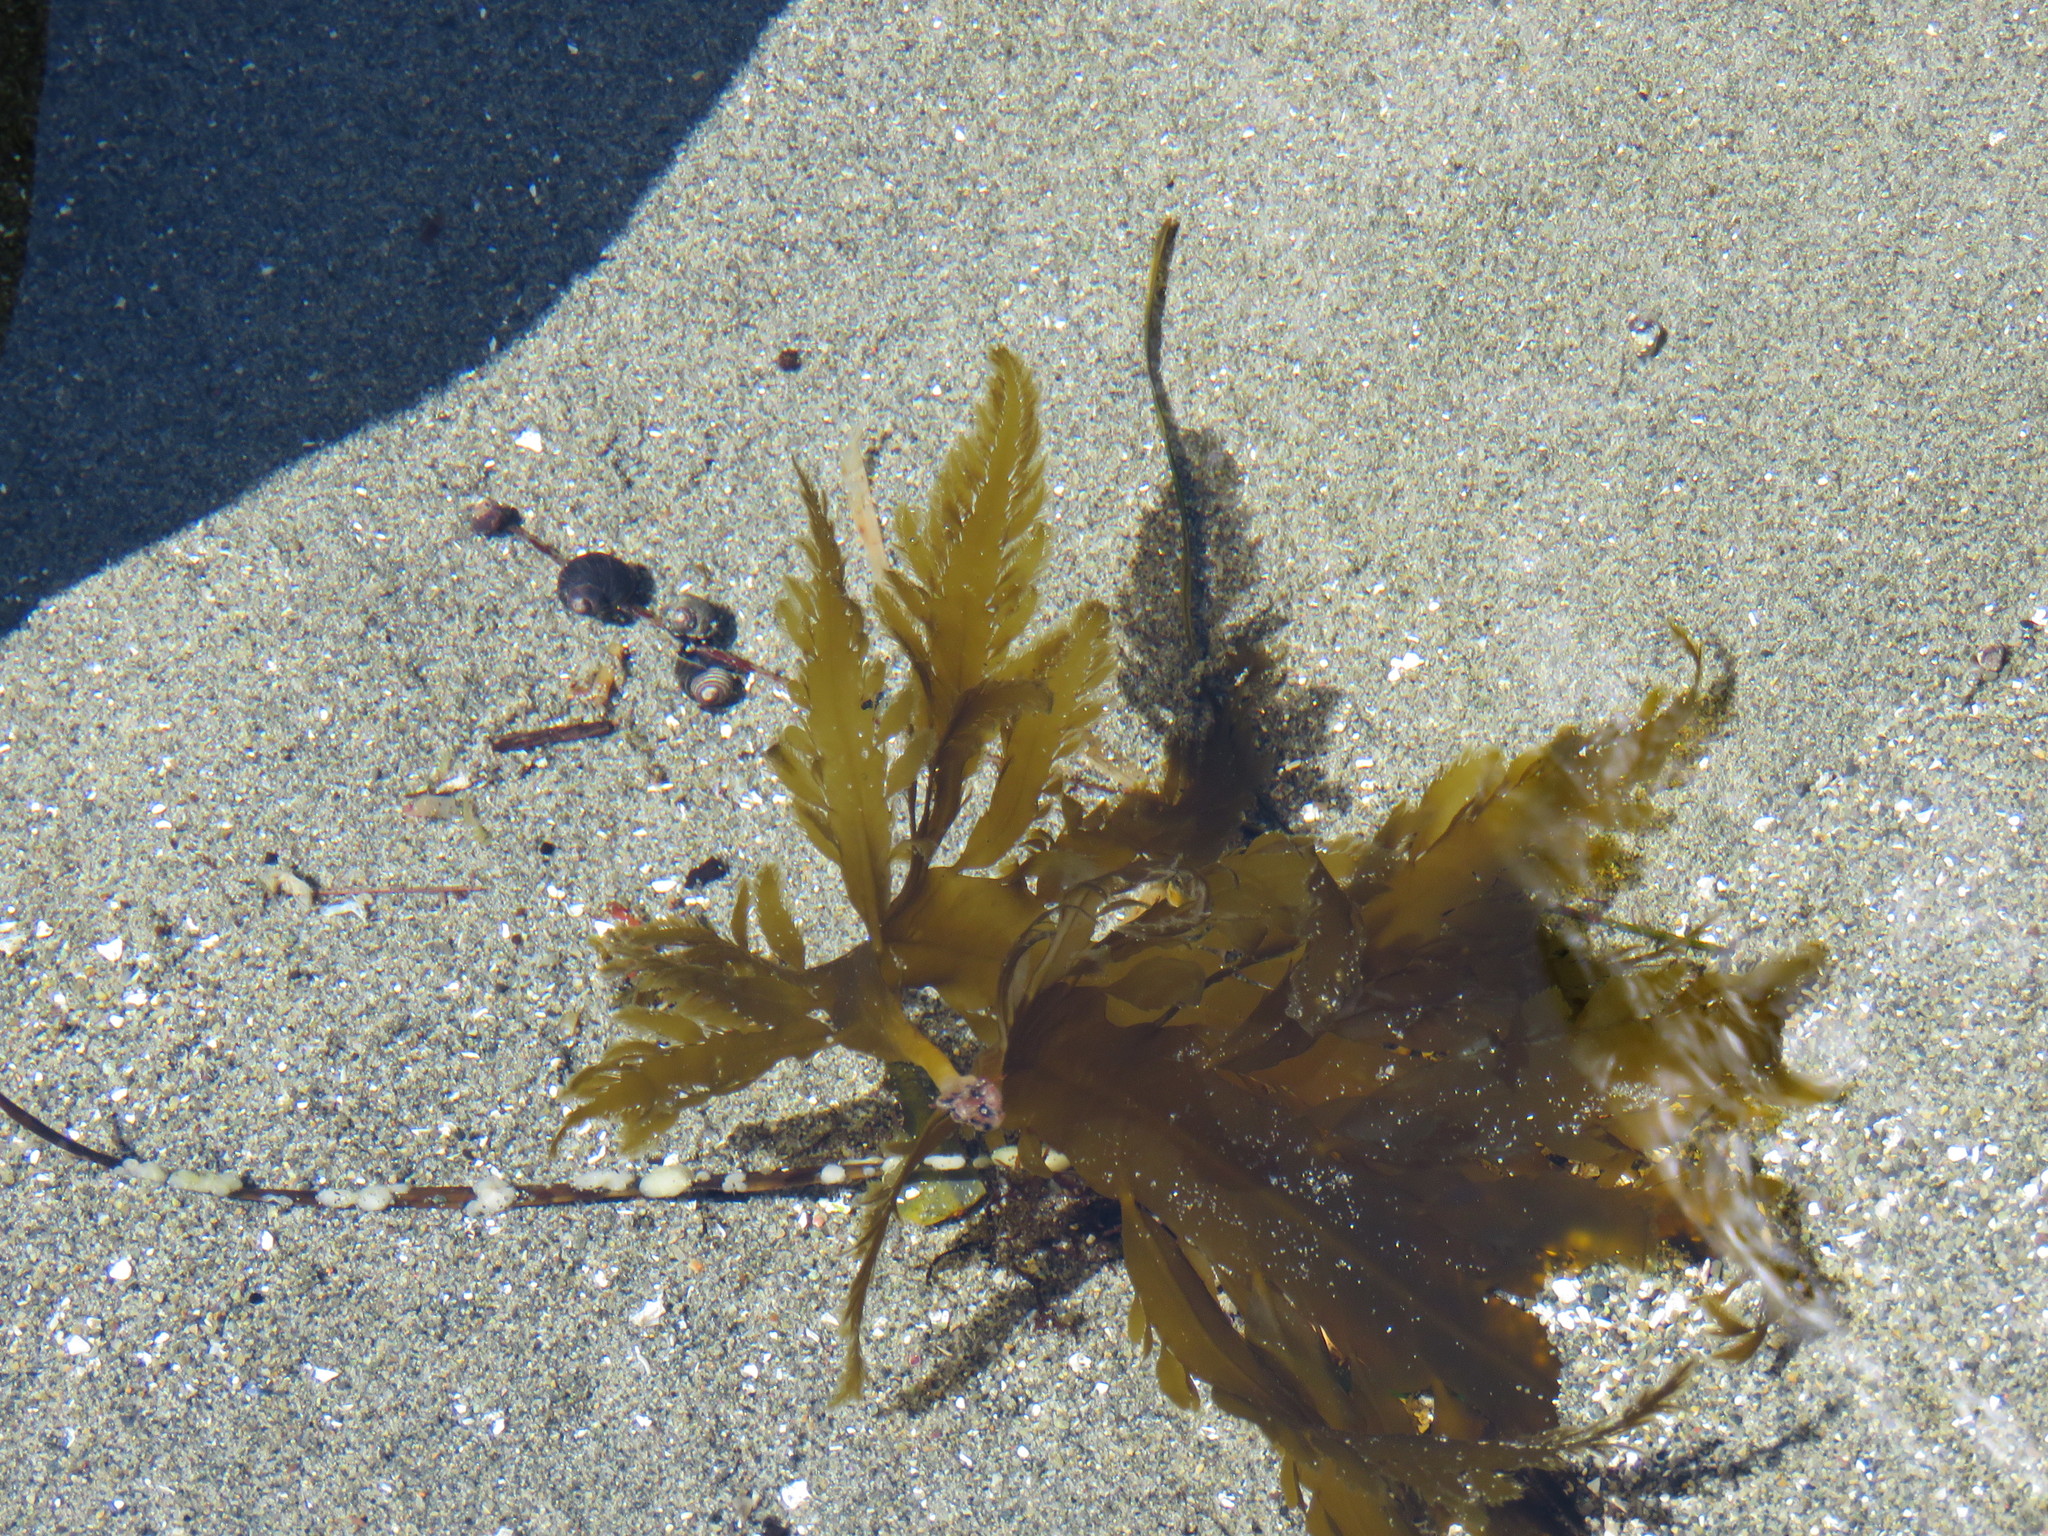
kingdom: Chromista
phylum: Ochrophyta
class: Phaeophyceae
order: Desmarestiales
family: Desmarestiaceae
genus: Desmarestia
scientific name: Desmarestia ligulata
